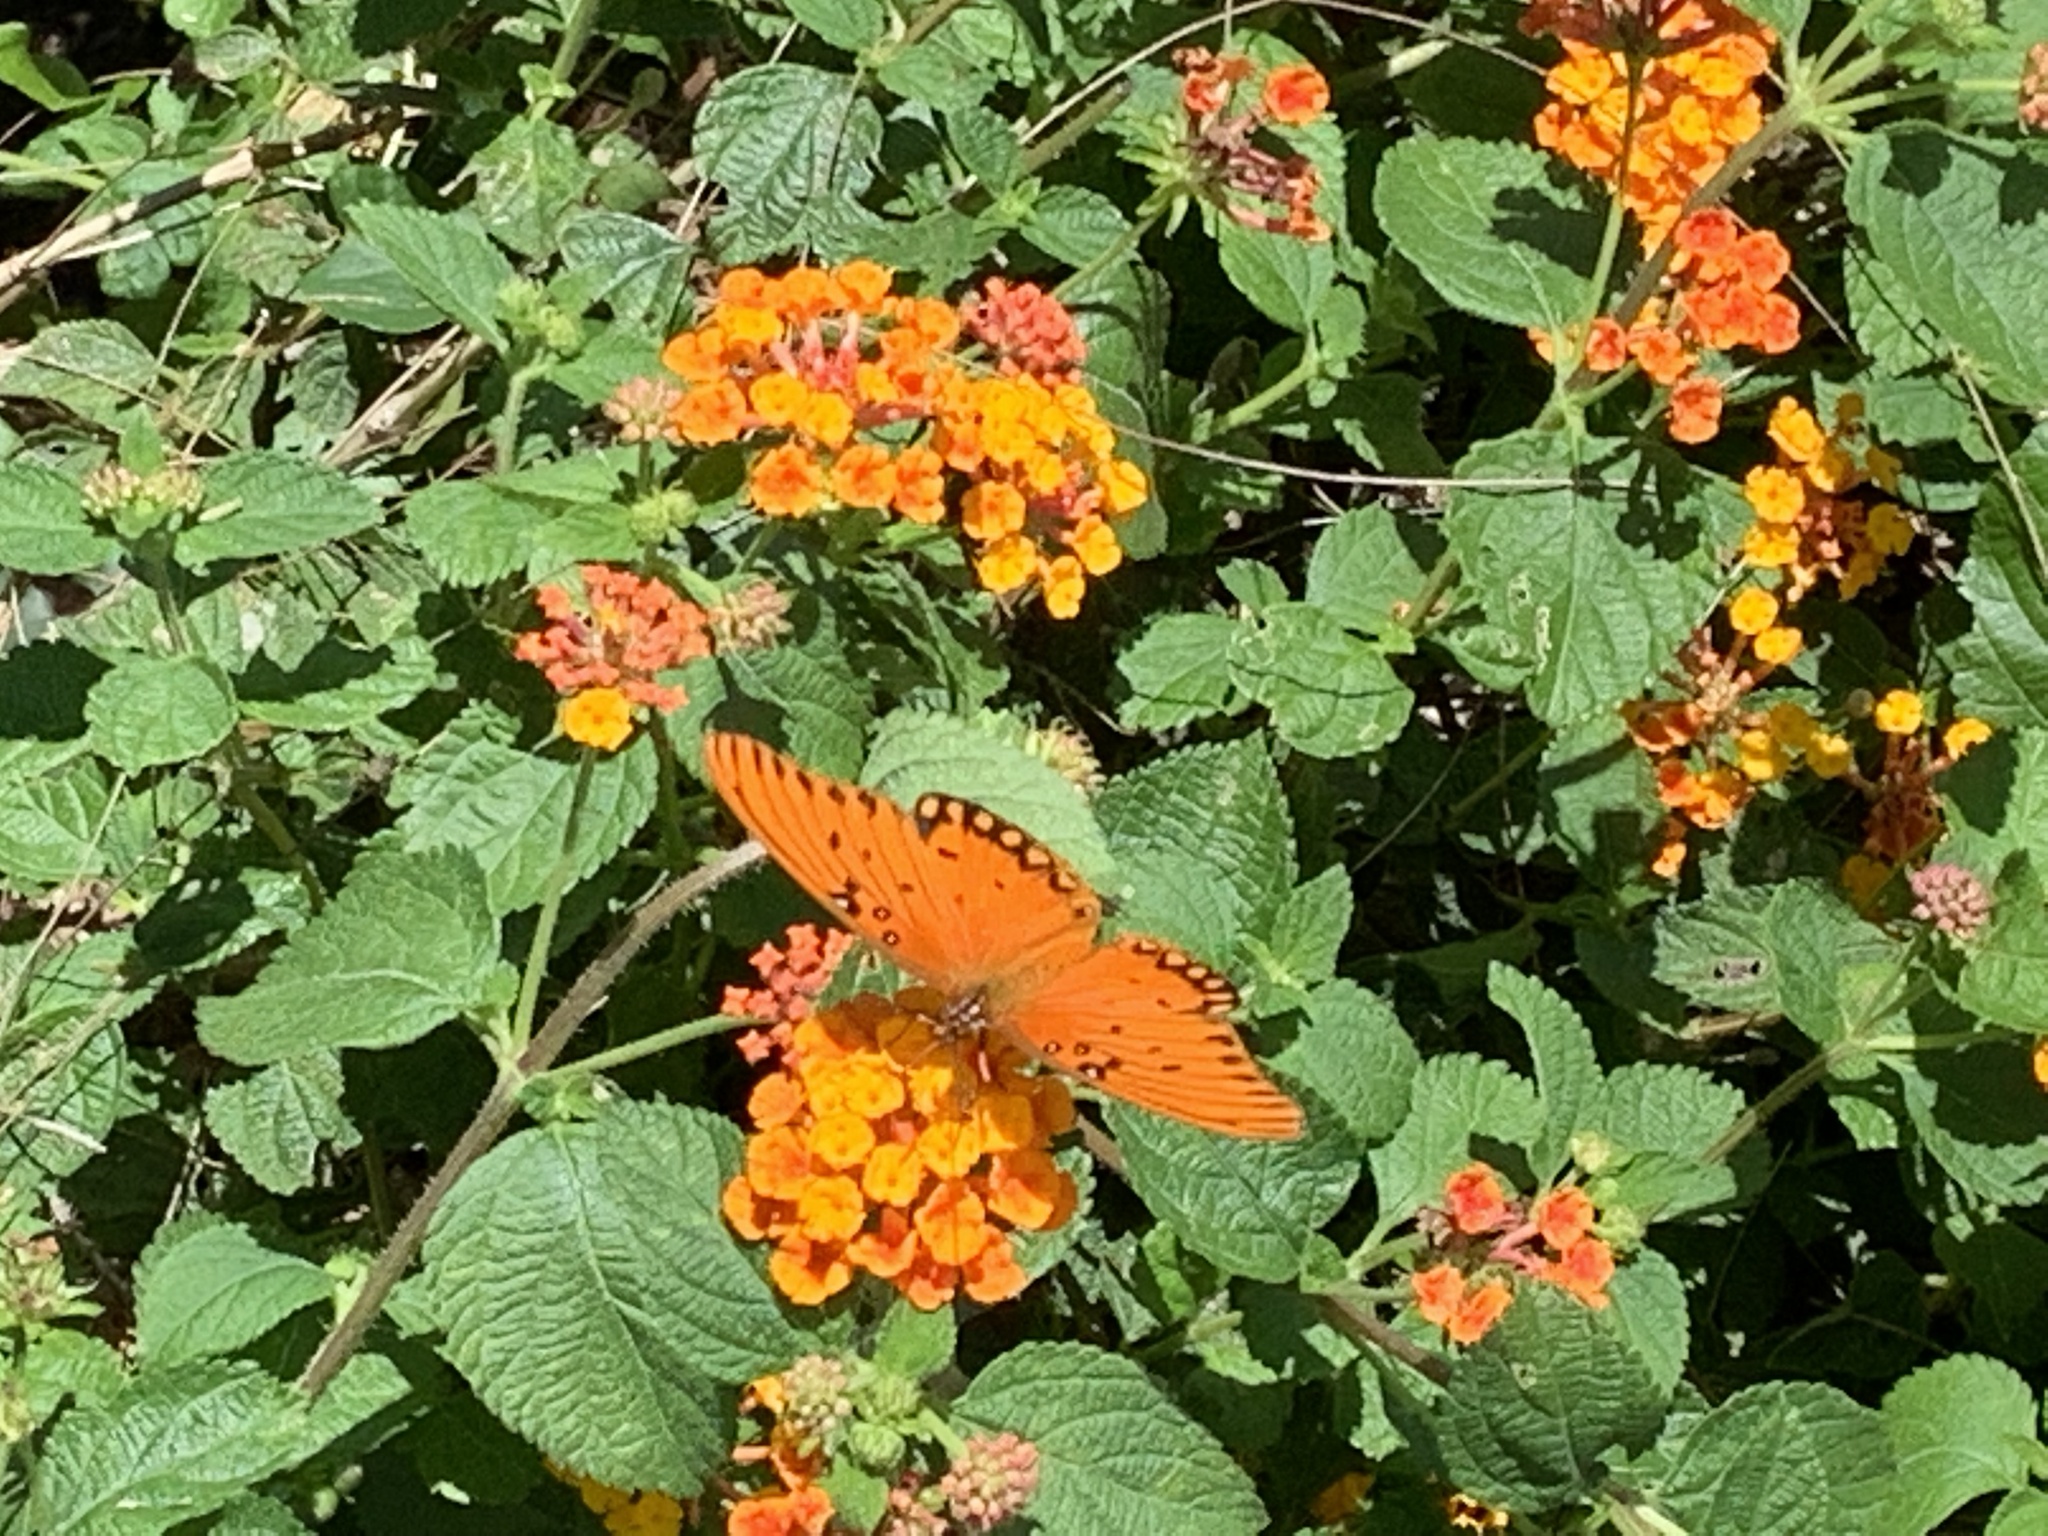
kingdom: Animalia
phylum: Arthropoda
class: Insecta
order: Lepidoptera
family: Nymphalidae
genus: Dione
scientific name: Dione vanillae
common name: Gulf fritillary
